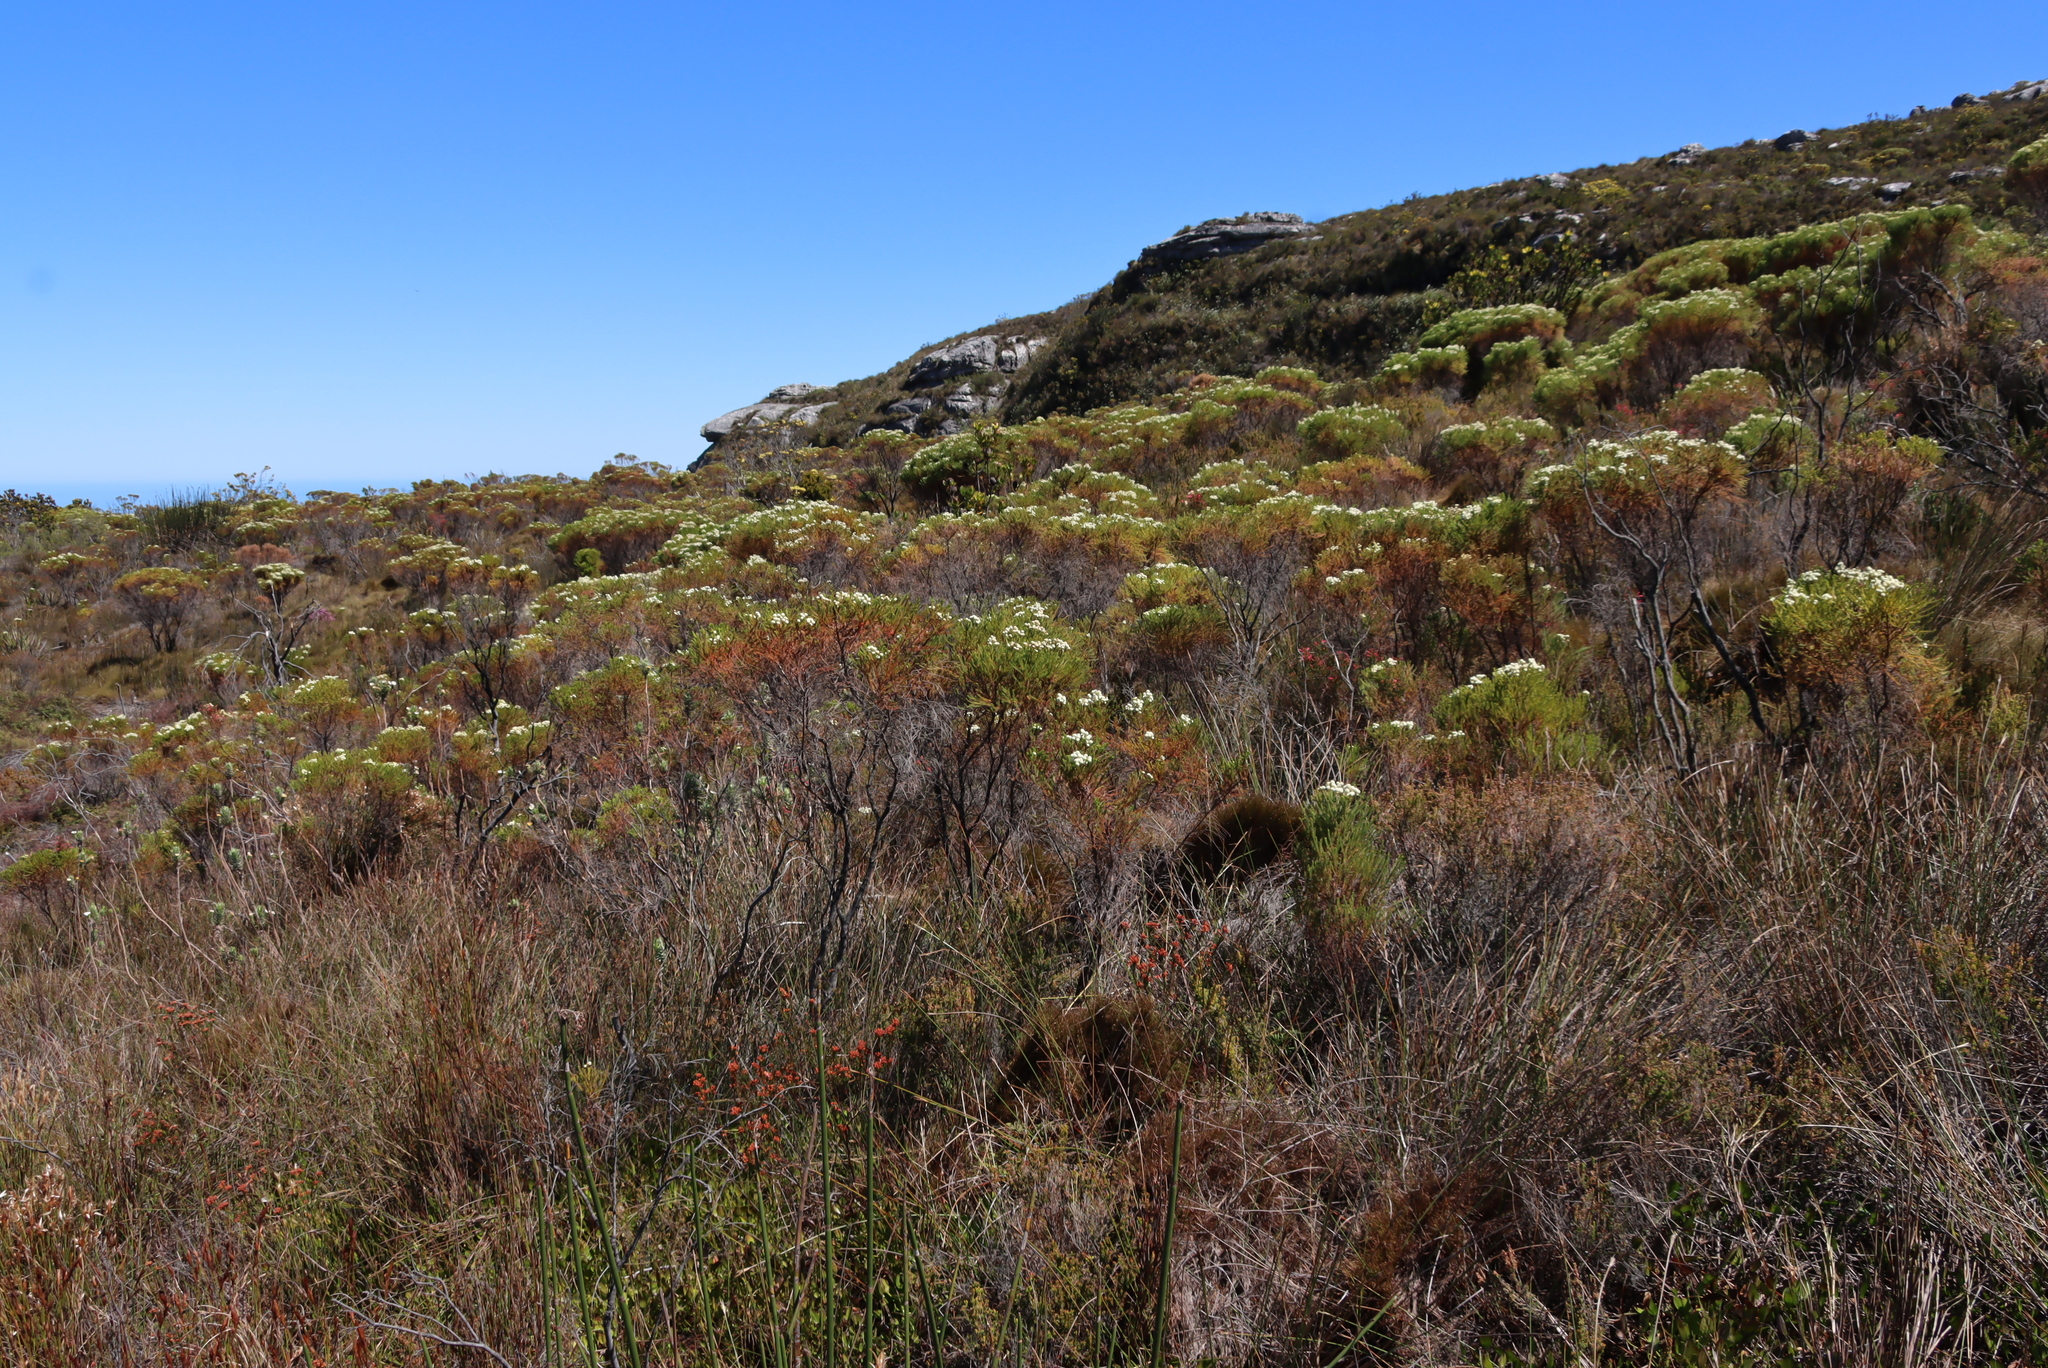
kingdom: Plantae
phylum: Tracheophyta
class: Magnoliopsida
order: Bruniales
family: Bruniaceae
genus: Berzelia
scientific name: Berzelia lanuginosa
